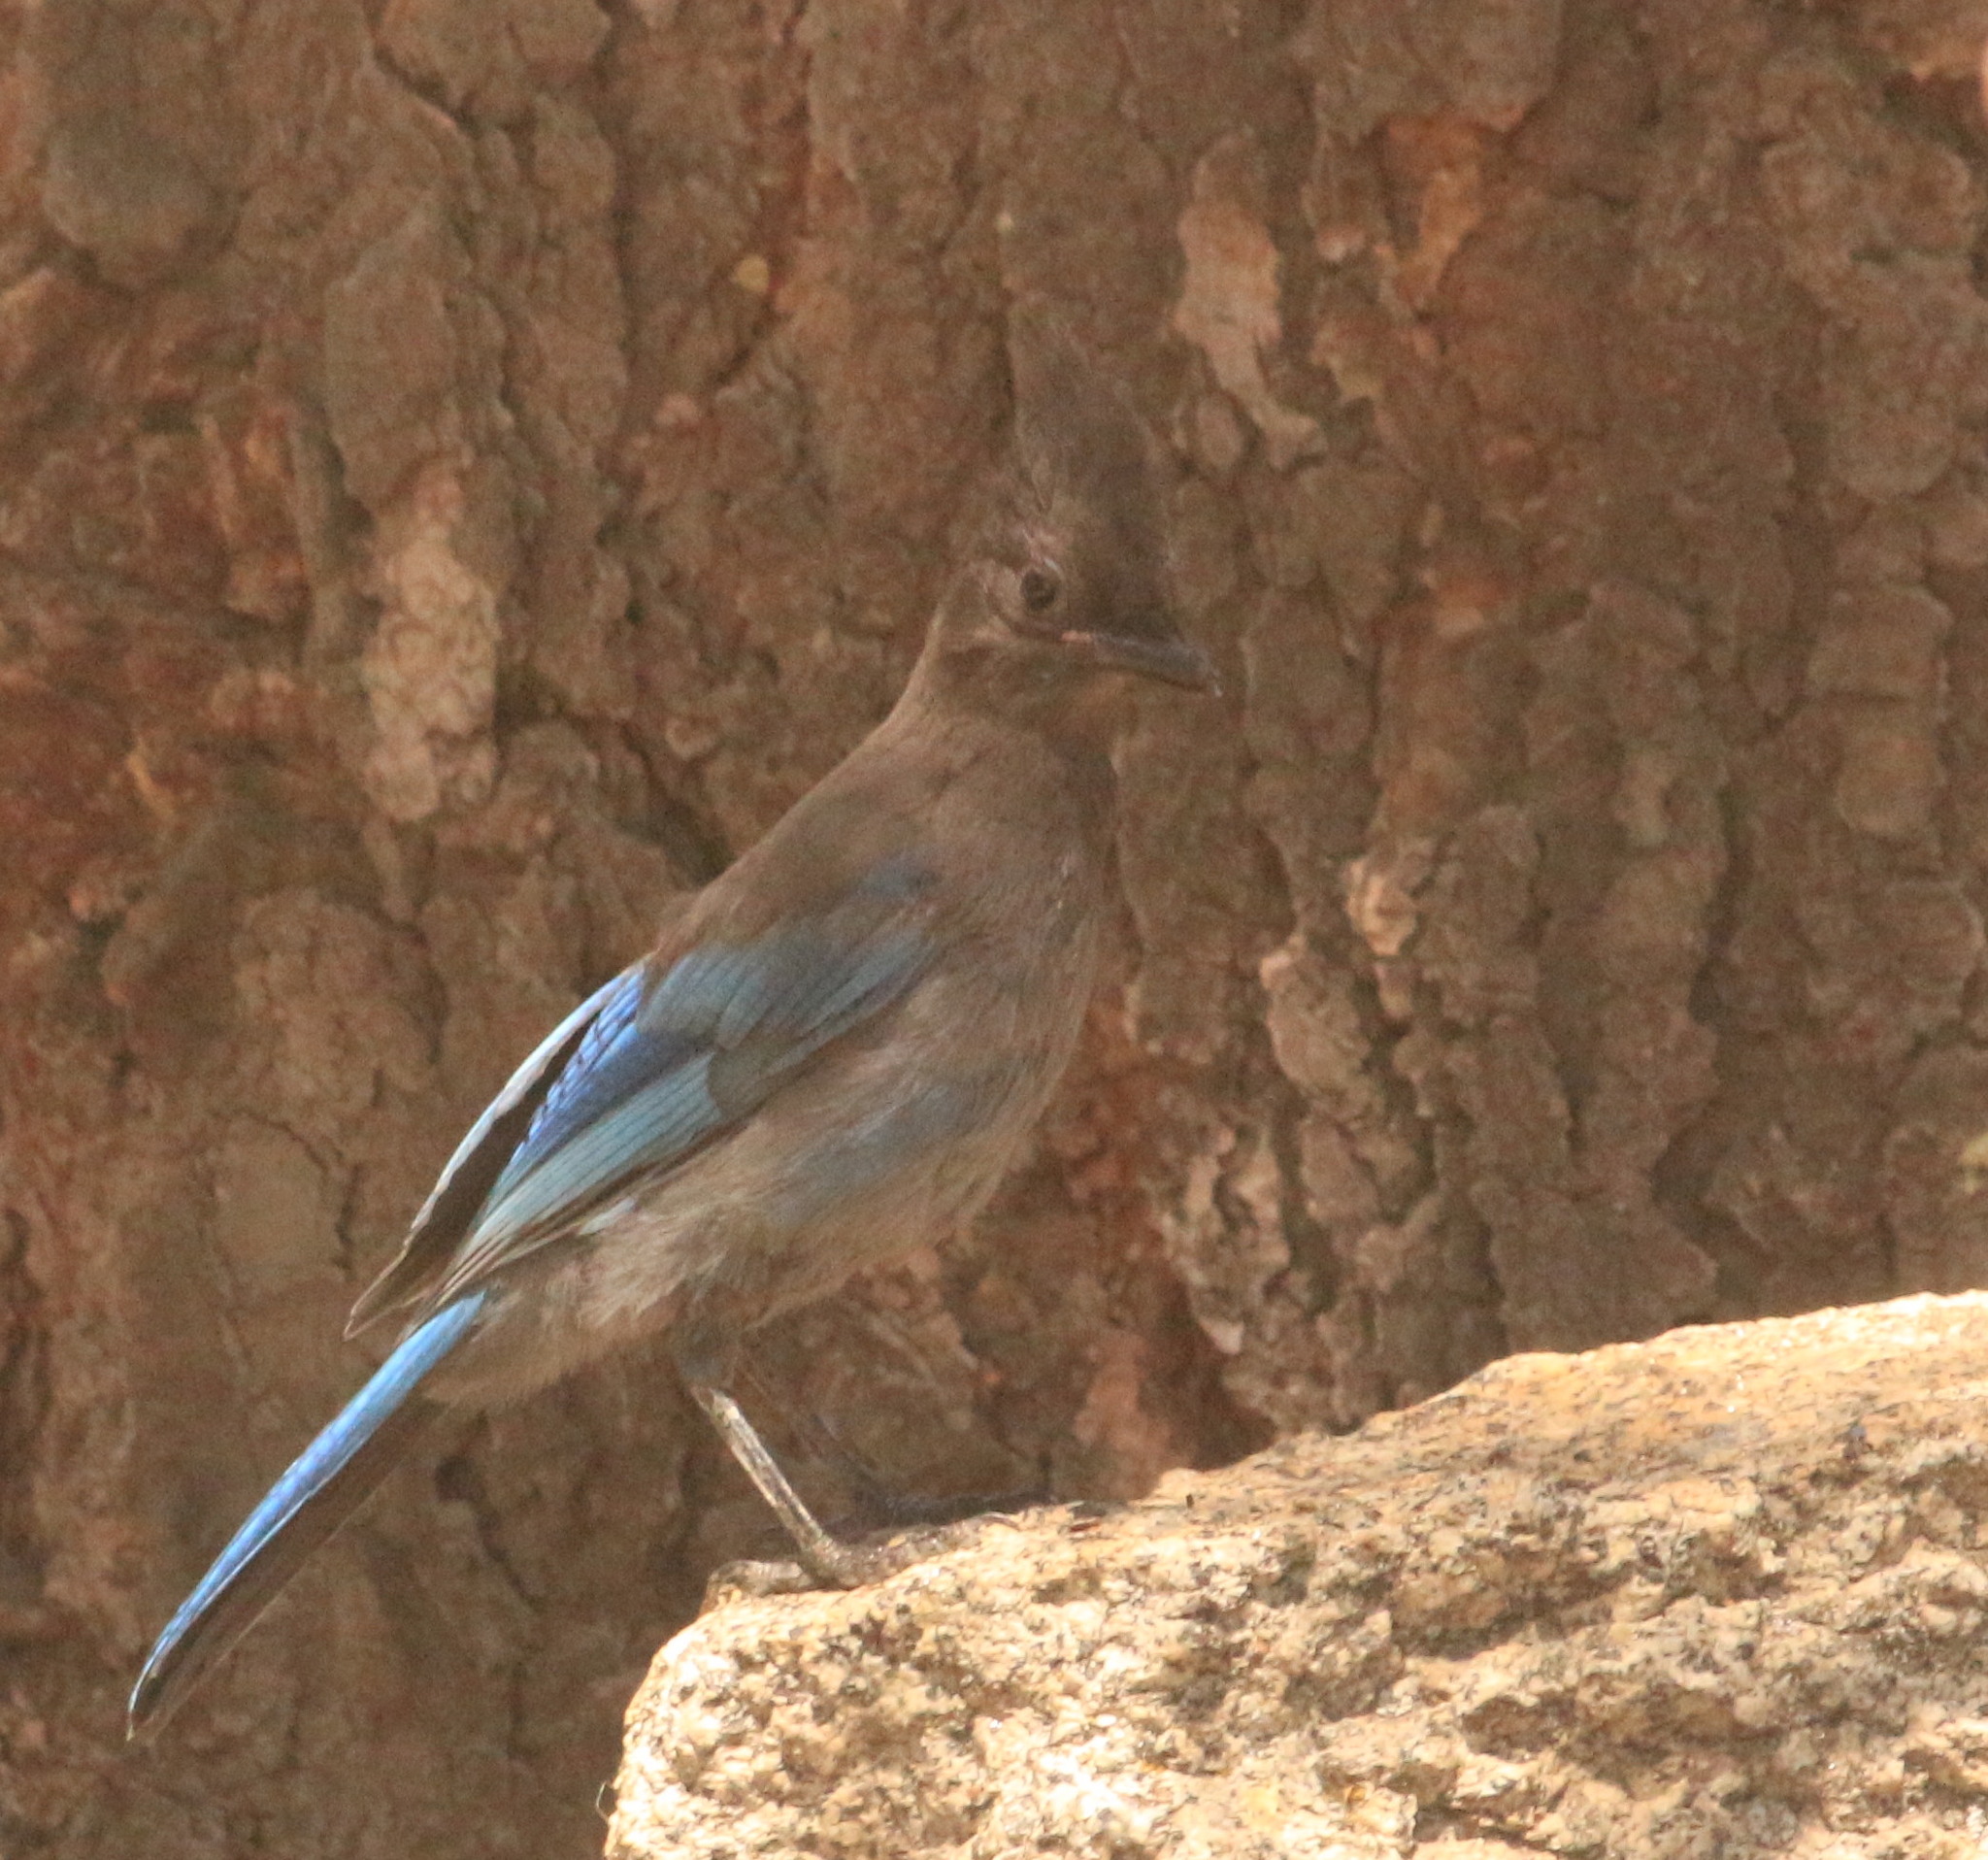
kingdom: Animalia
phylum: Chordata
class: Aves
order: Passeriformes
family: Corvidae
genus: Cyanocitta
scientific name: Cyanocitta stelleri
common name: Steller's jay
